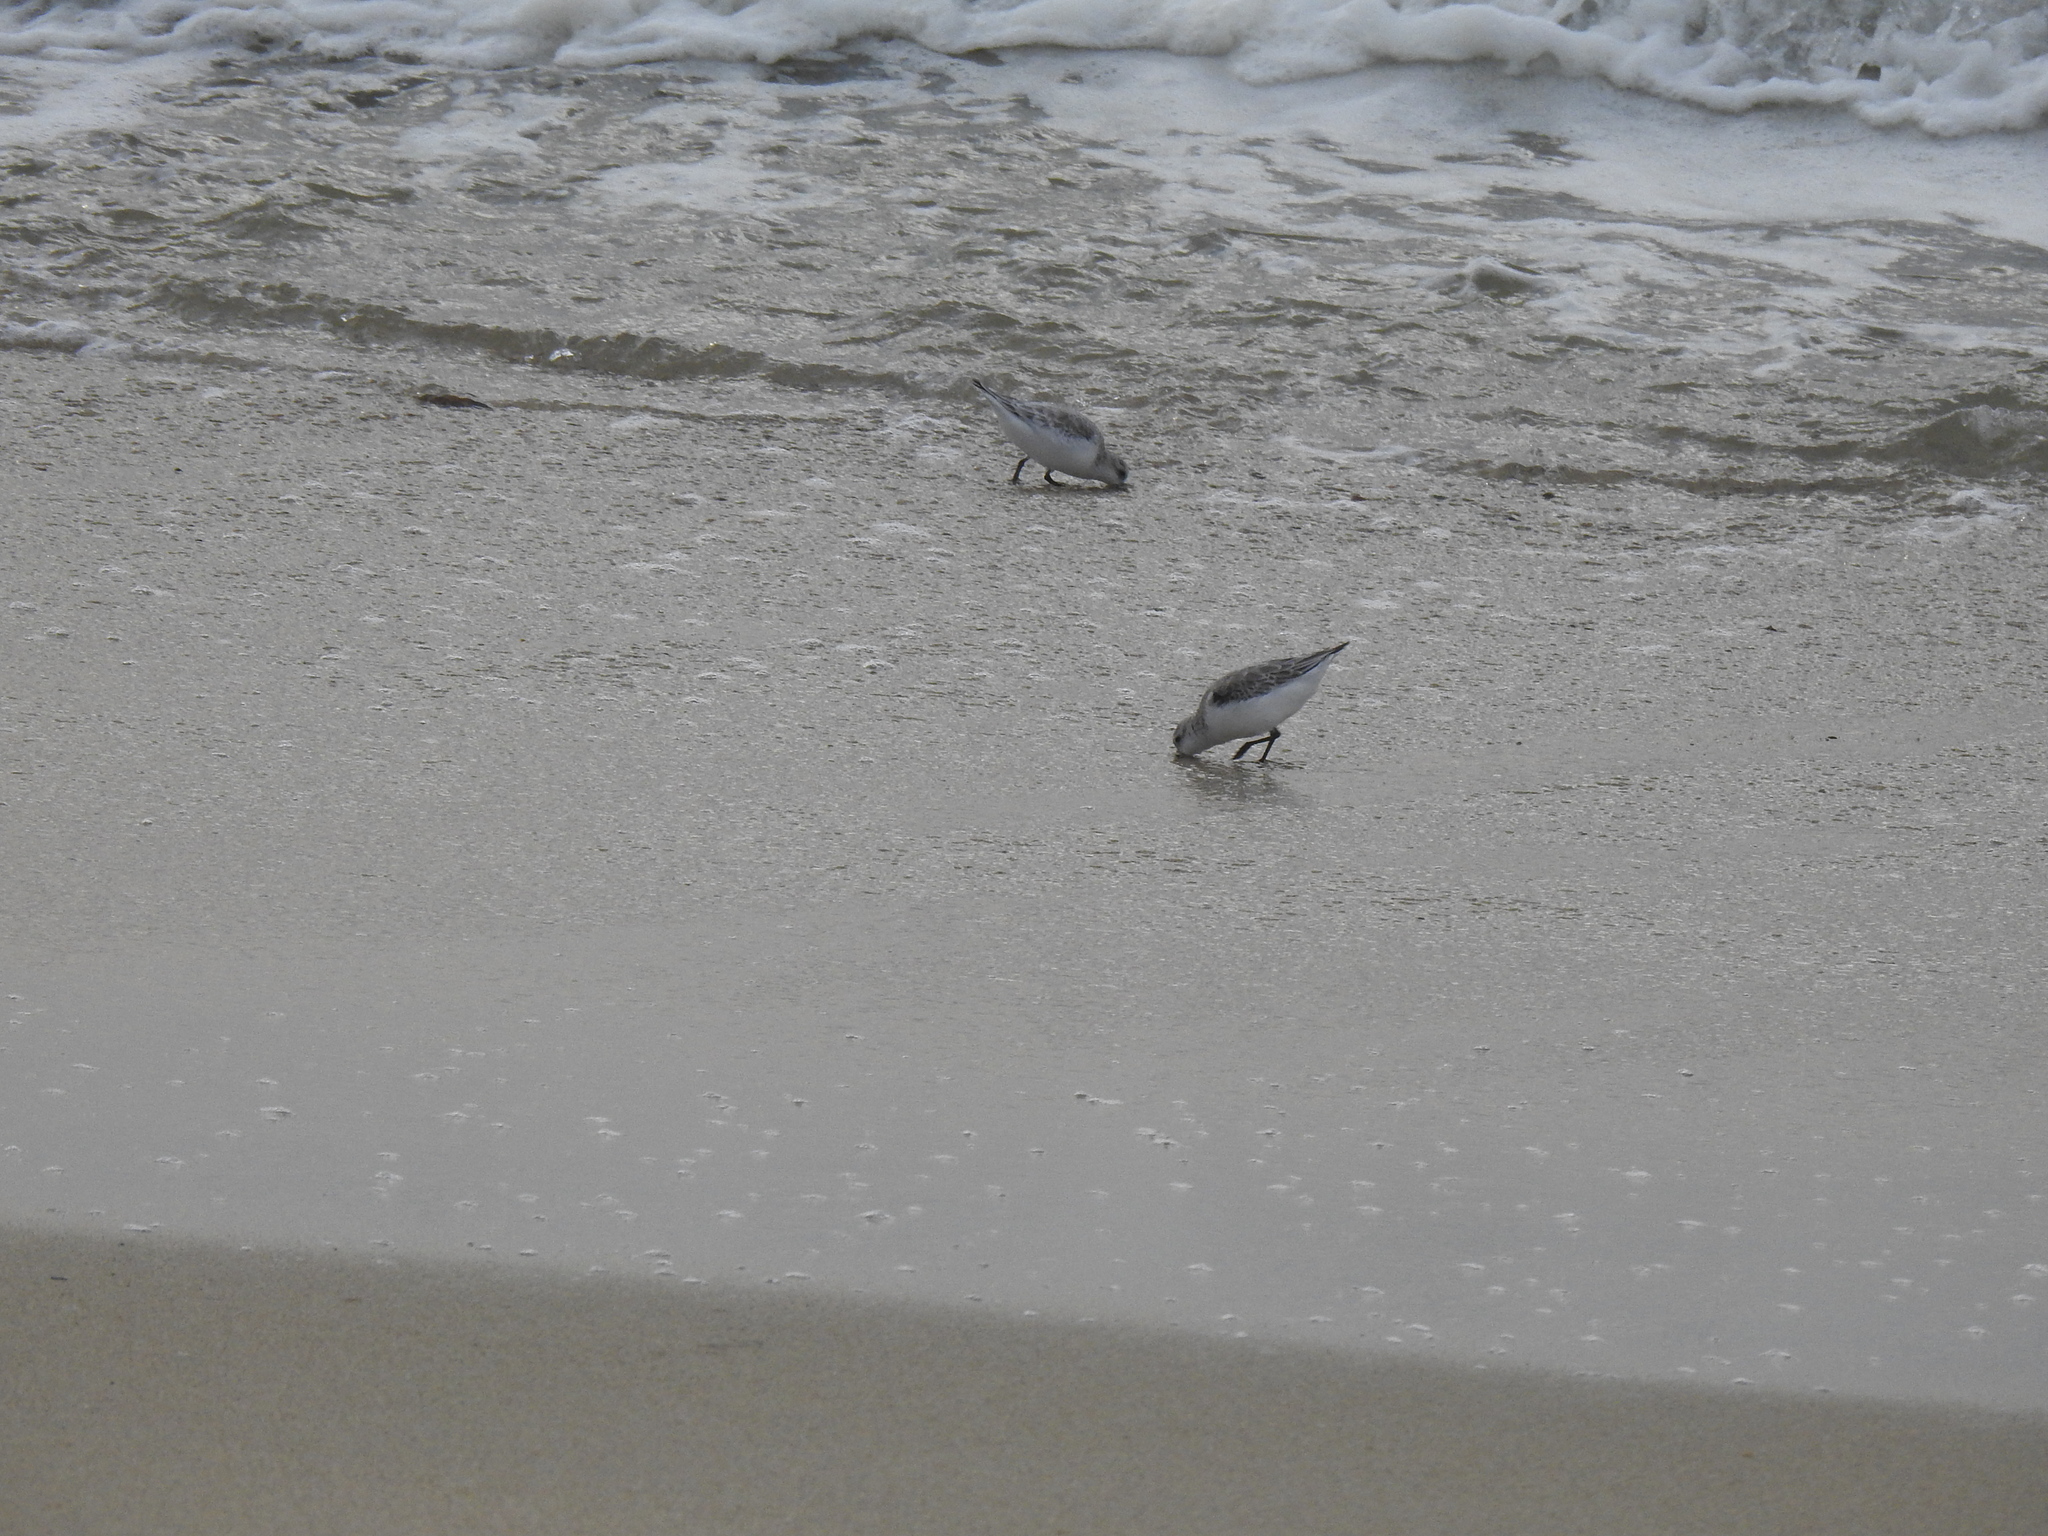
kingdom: Animalia
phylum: Chordata
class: Aves
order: Charadriiformes
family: Scolopacidae
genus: Calidris
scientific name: Calidris alba
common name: Sanderling
